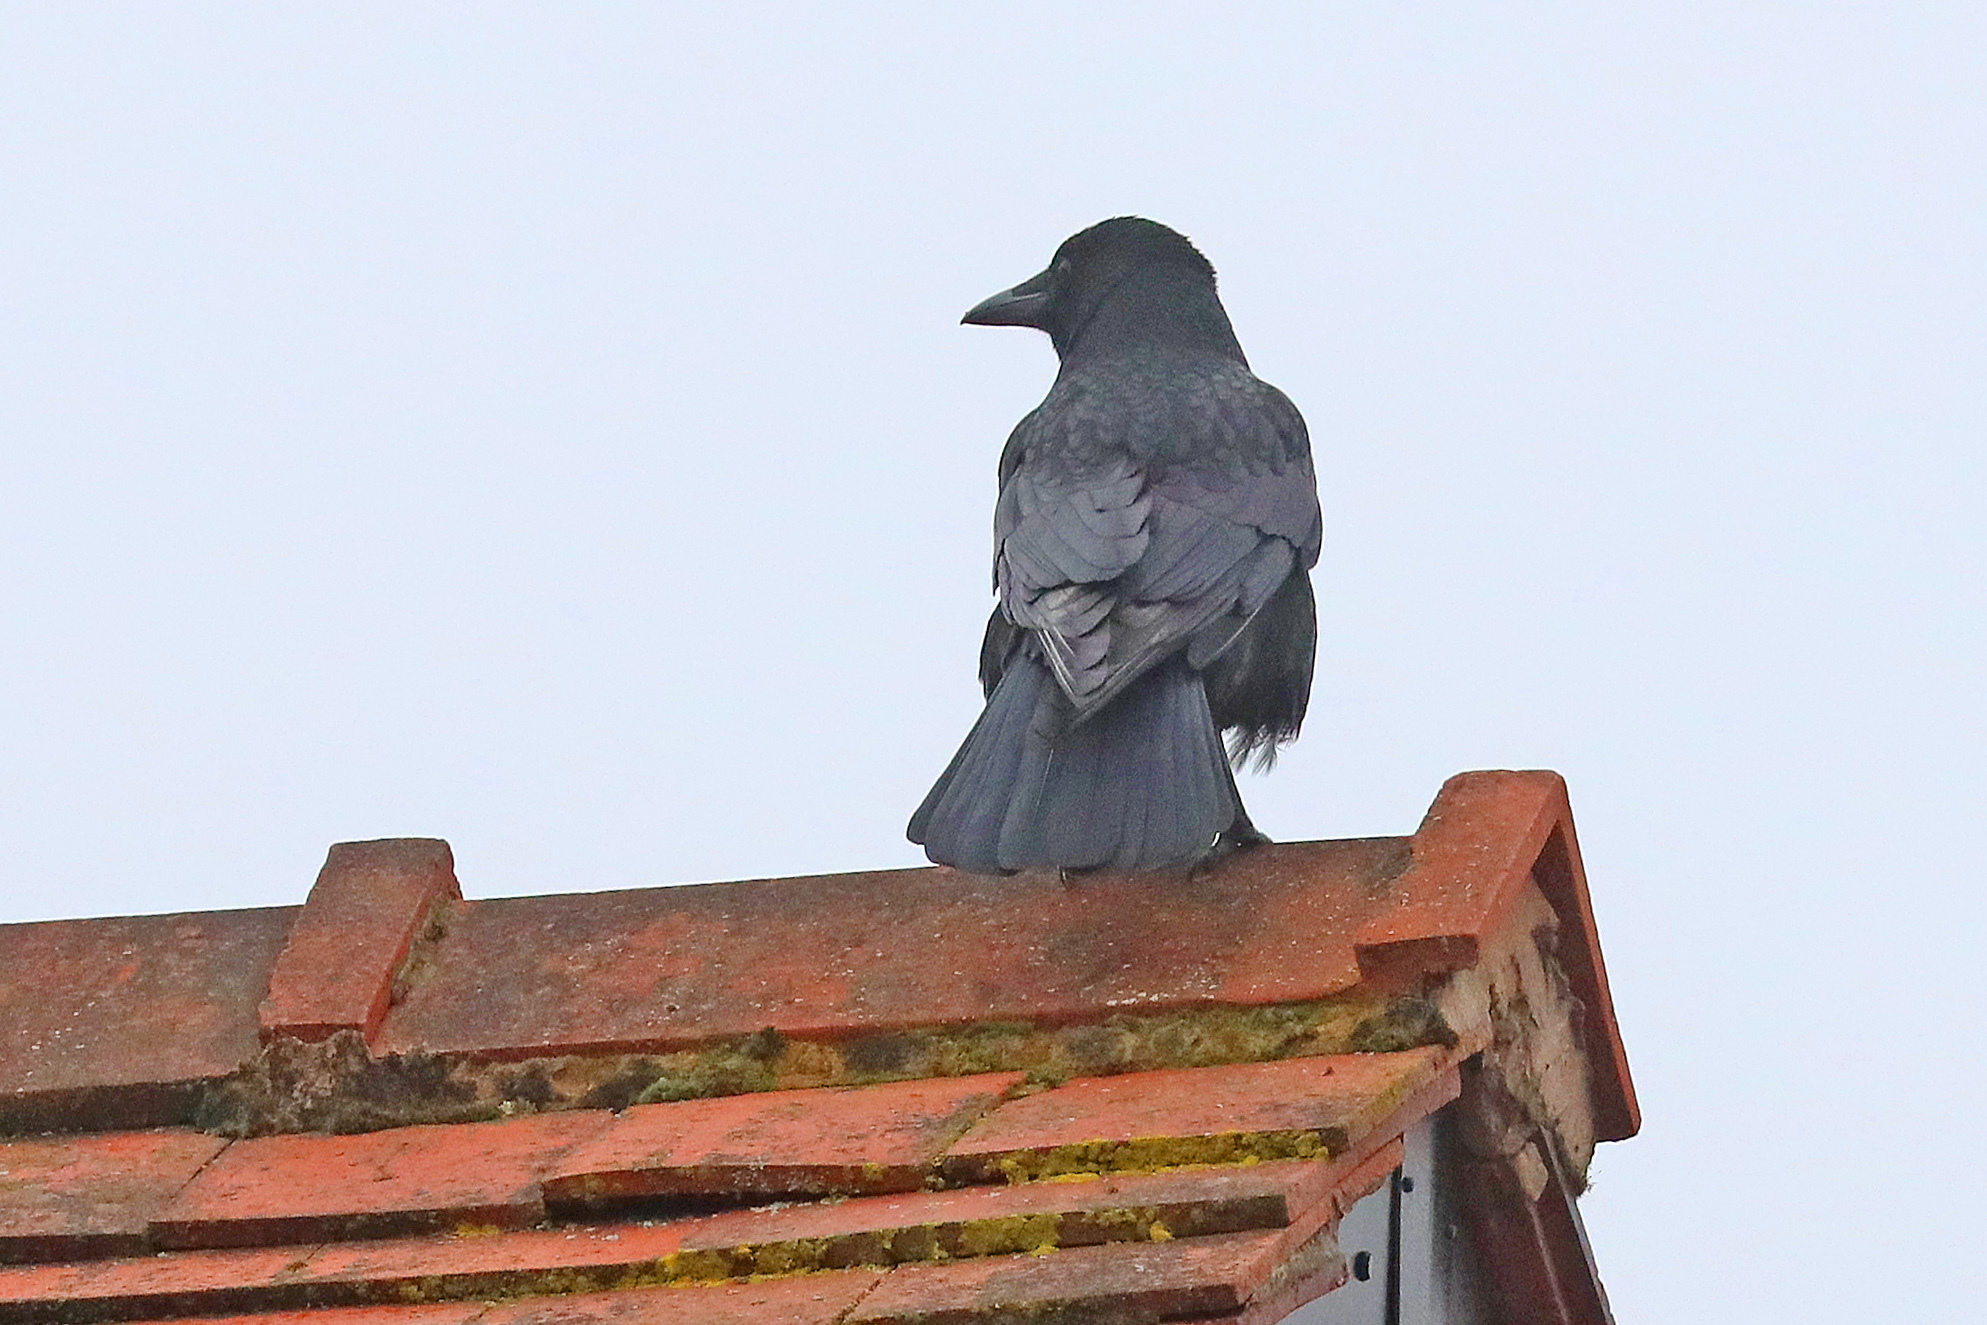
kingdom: Animalia
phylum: Chordata
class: Aves
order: Passeriformes
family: Corvidae
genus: Corvus
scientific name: Corvus corone
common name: Carrion crow
